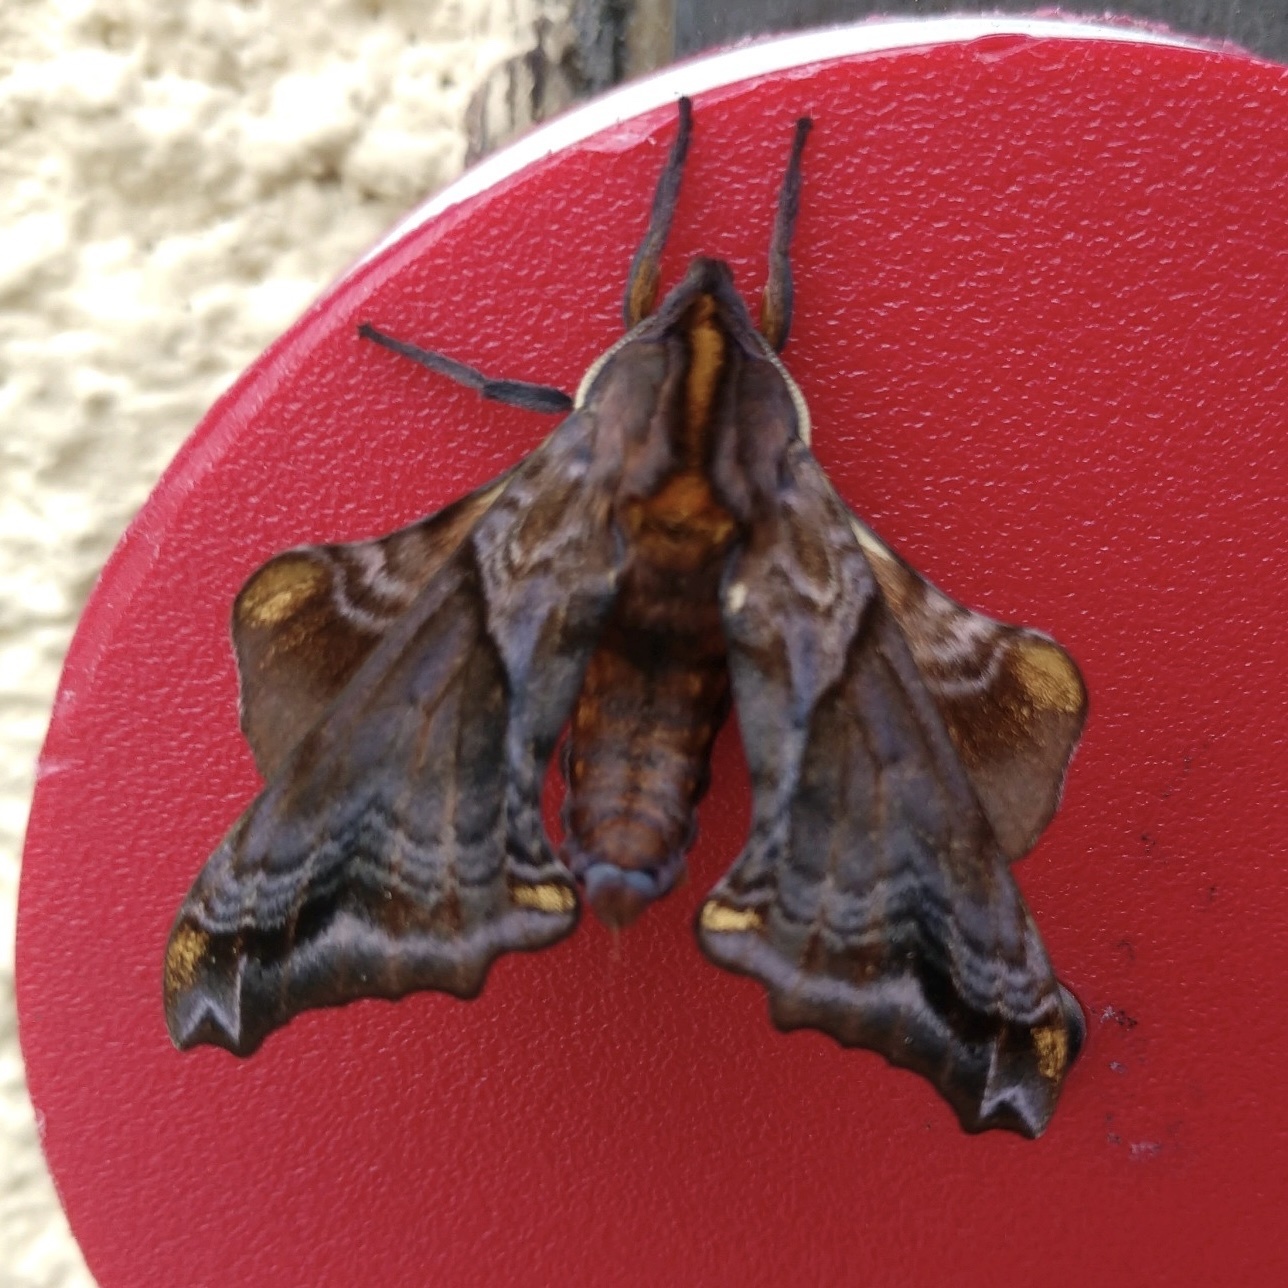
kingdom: Animalia
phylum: Arthropoda
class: Insecta
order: Lepidoptera
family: Sphingidae
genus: Paonias
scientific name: Paonias myops
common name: Small-eyed sphinx
